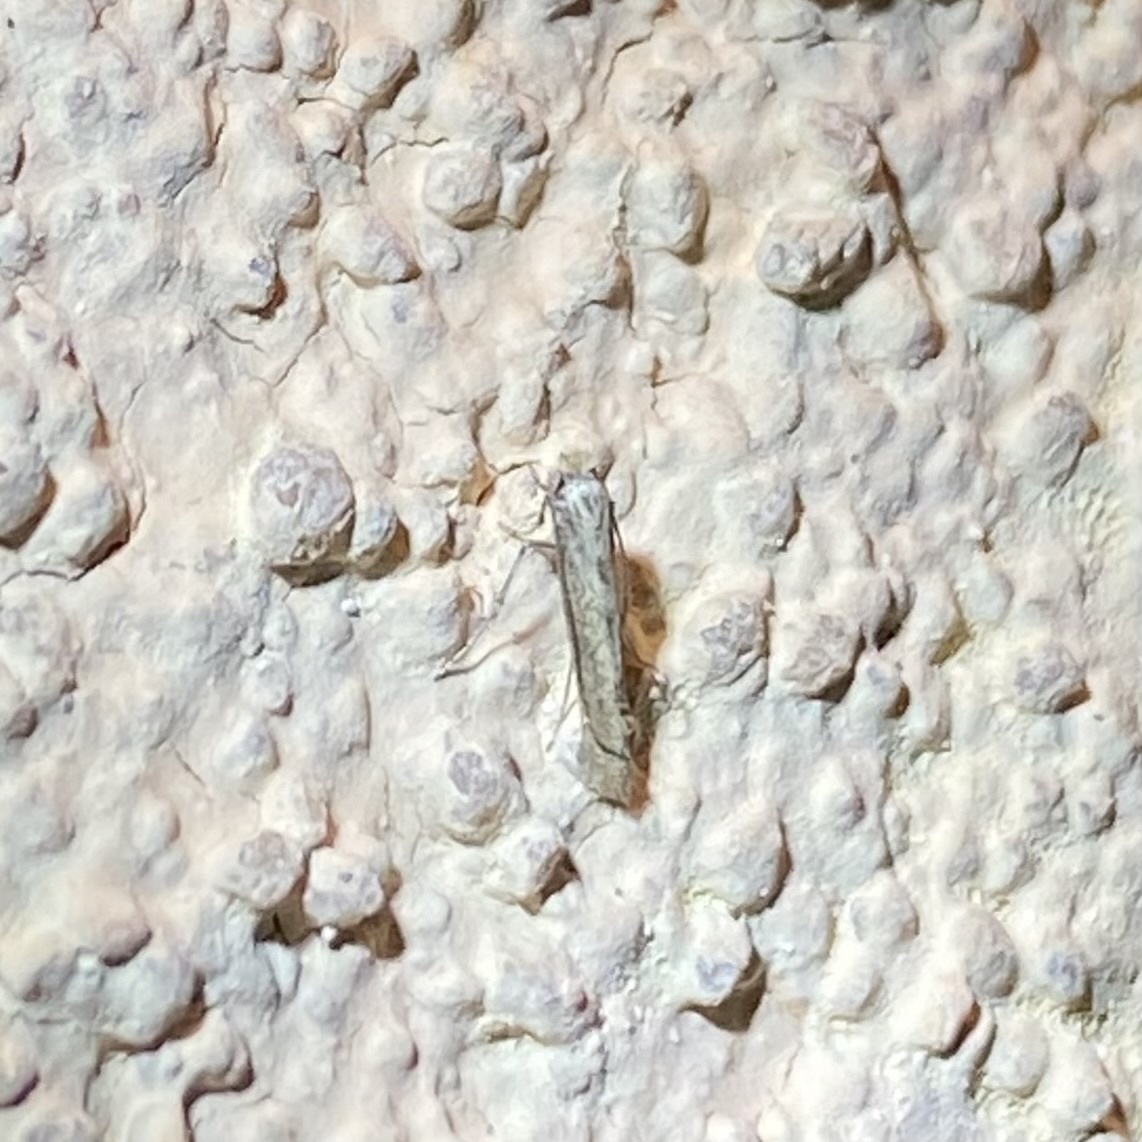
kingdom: Animalia
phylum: Arthropoda
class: Insecta
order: Lepidoptera
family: Bedelliidae
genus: Bedellia
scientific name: Bedellia somnulentella
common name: Morning-glory leafminer moth
